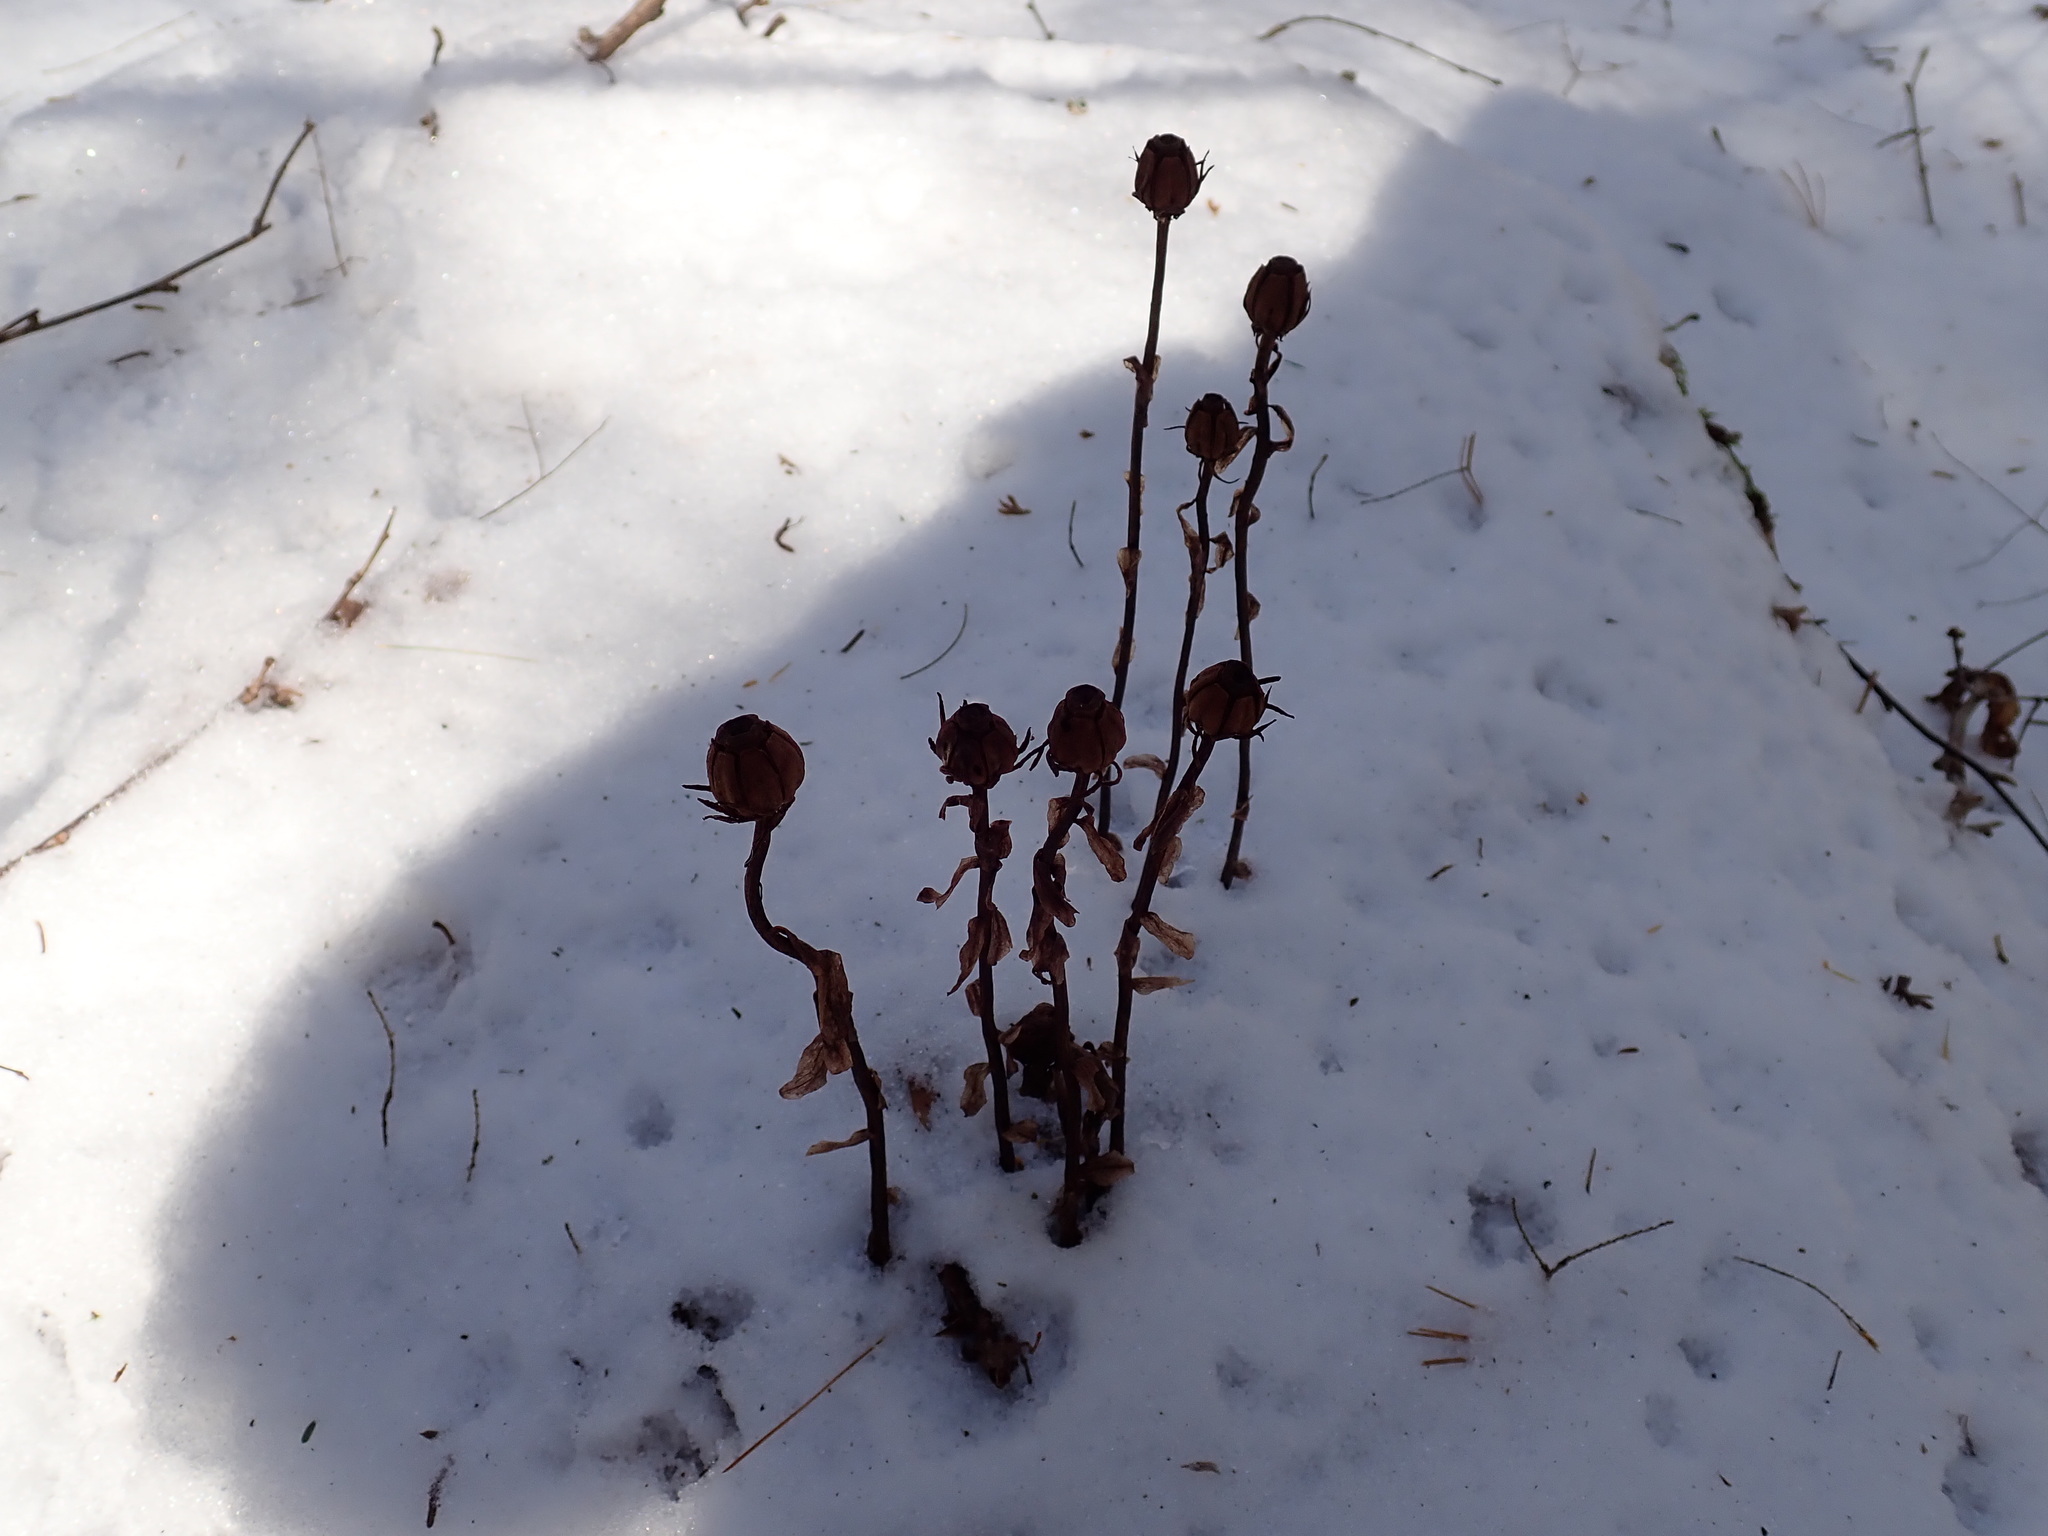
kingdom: Plantae
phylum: Tracheophyta
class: Magnoliopsida
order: Ericales
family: Ericaceae
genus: Monotropa
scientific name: Monotropa uniflora
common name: Convulsion root
